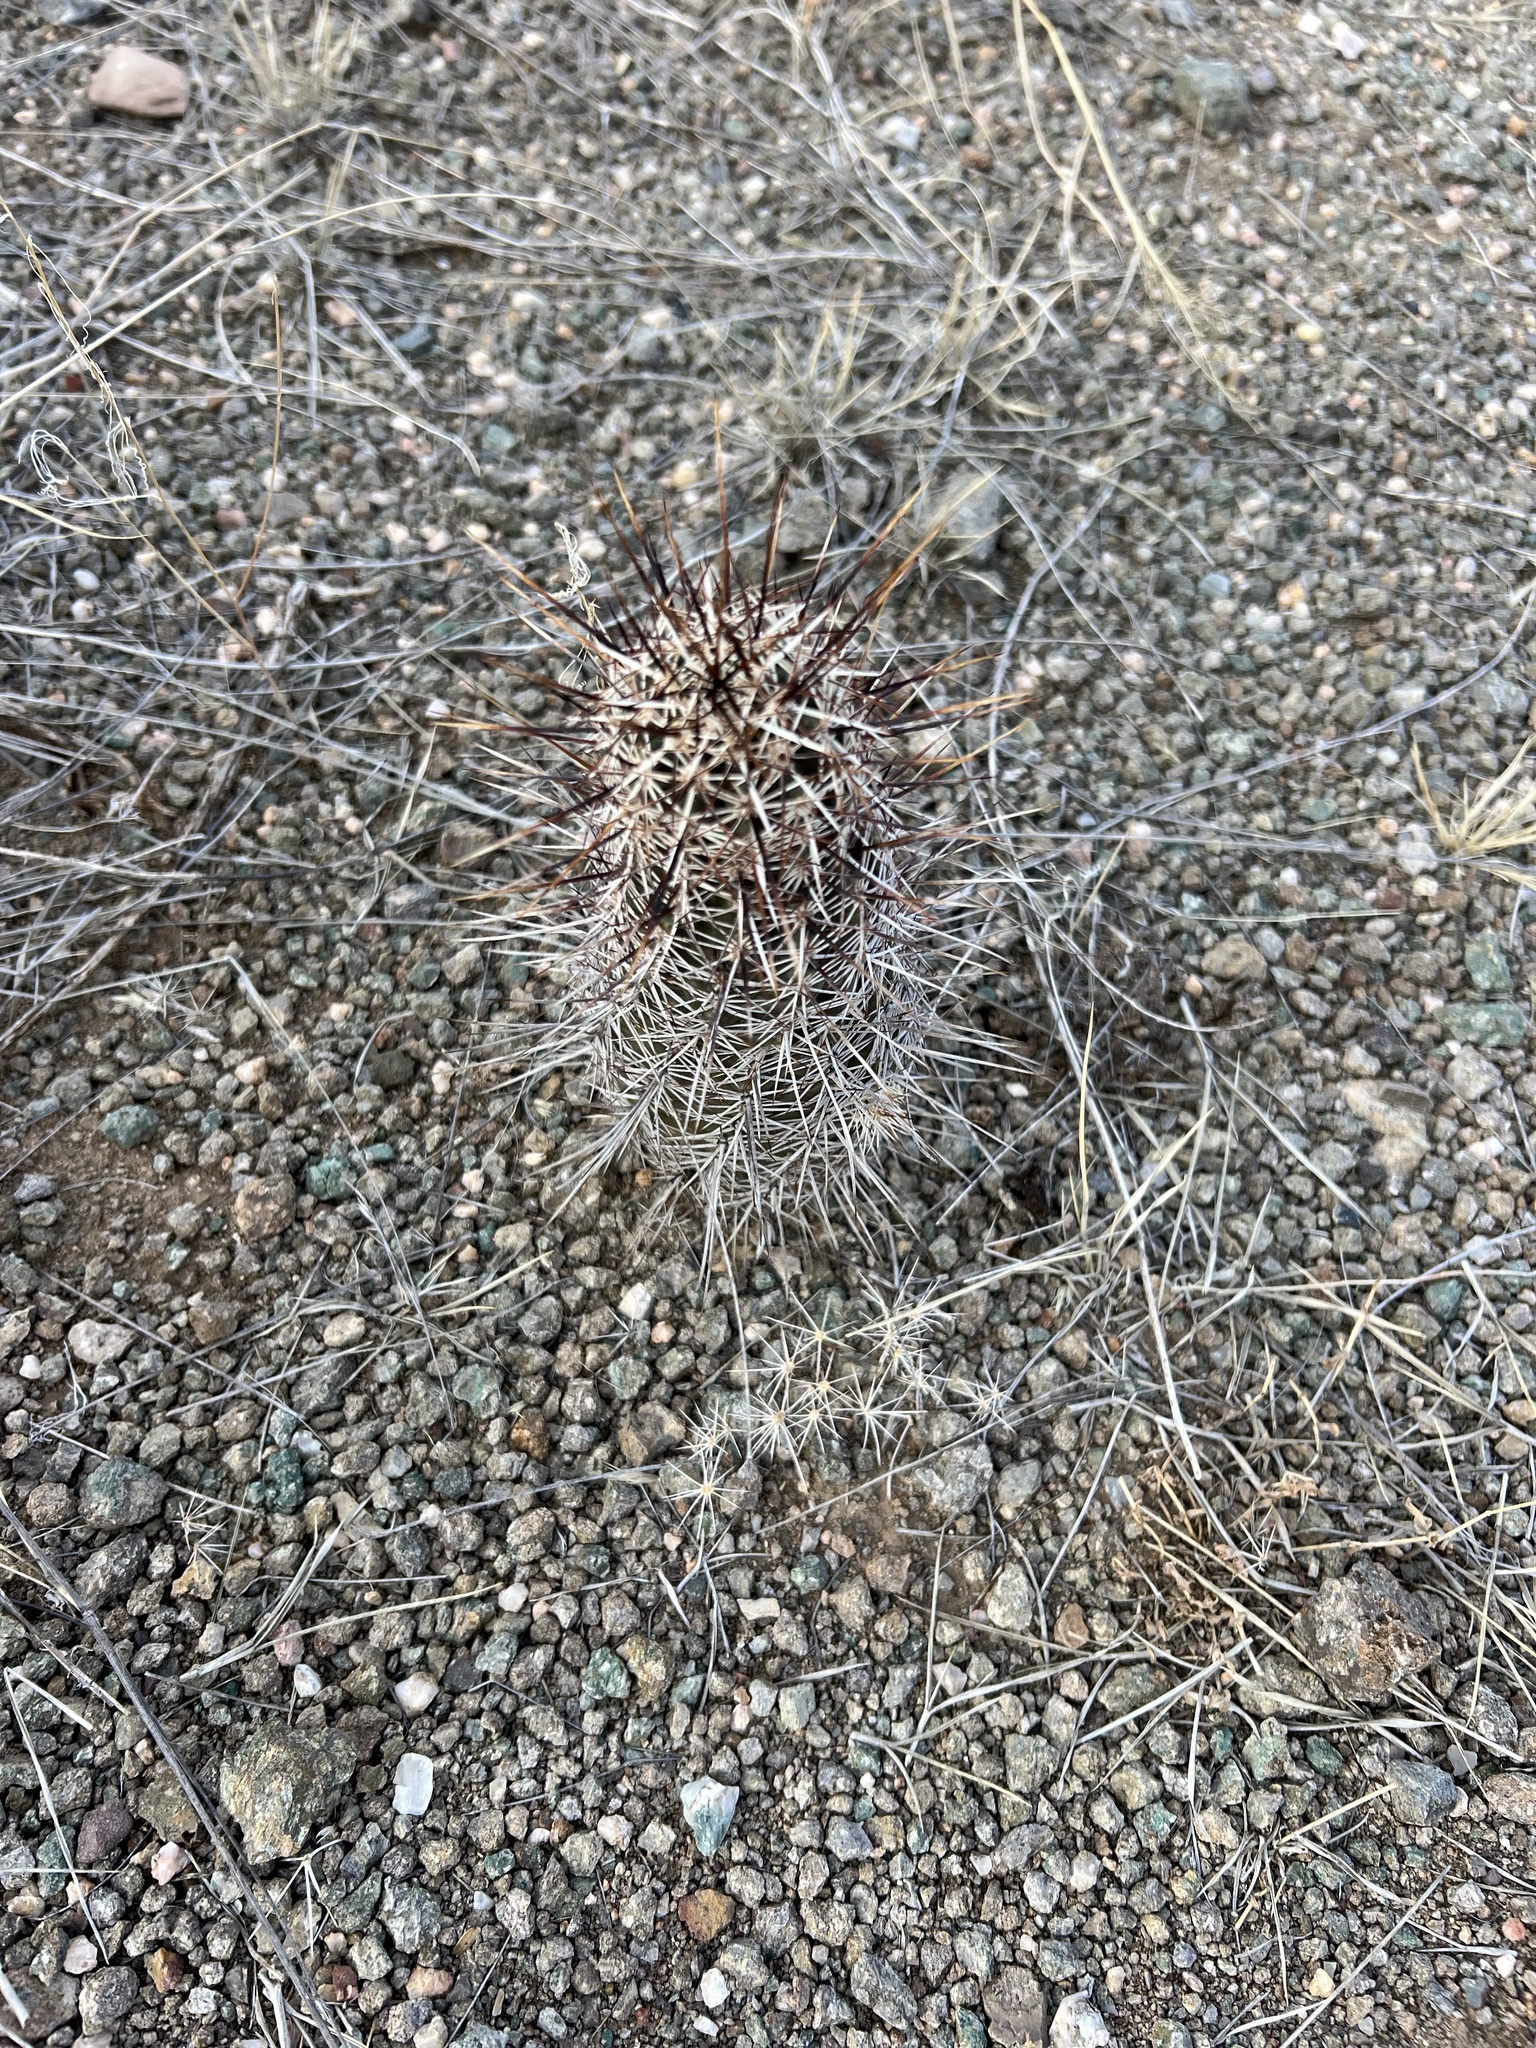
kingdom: Plantae
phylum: Tracheophyta
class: Magnoliopsida
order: Caryophyllales
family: Cactaceae
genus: Echinocereus
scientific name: Echinocereus fasciculatus
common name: Bundle hedgehog
